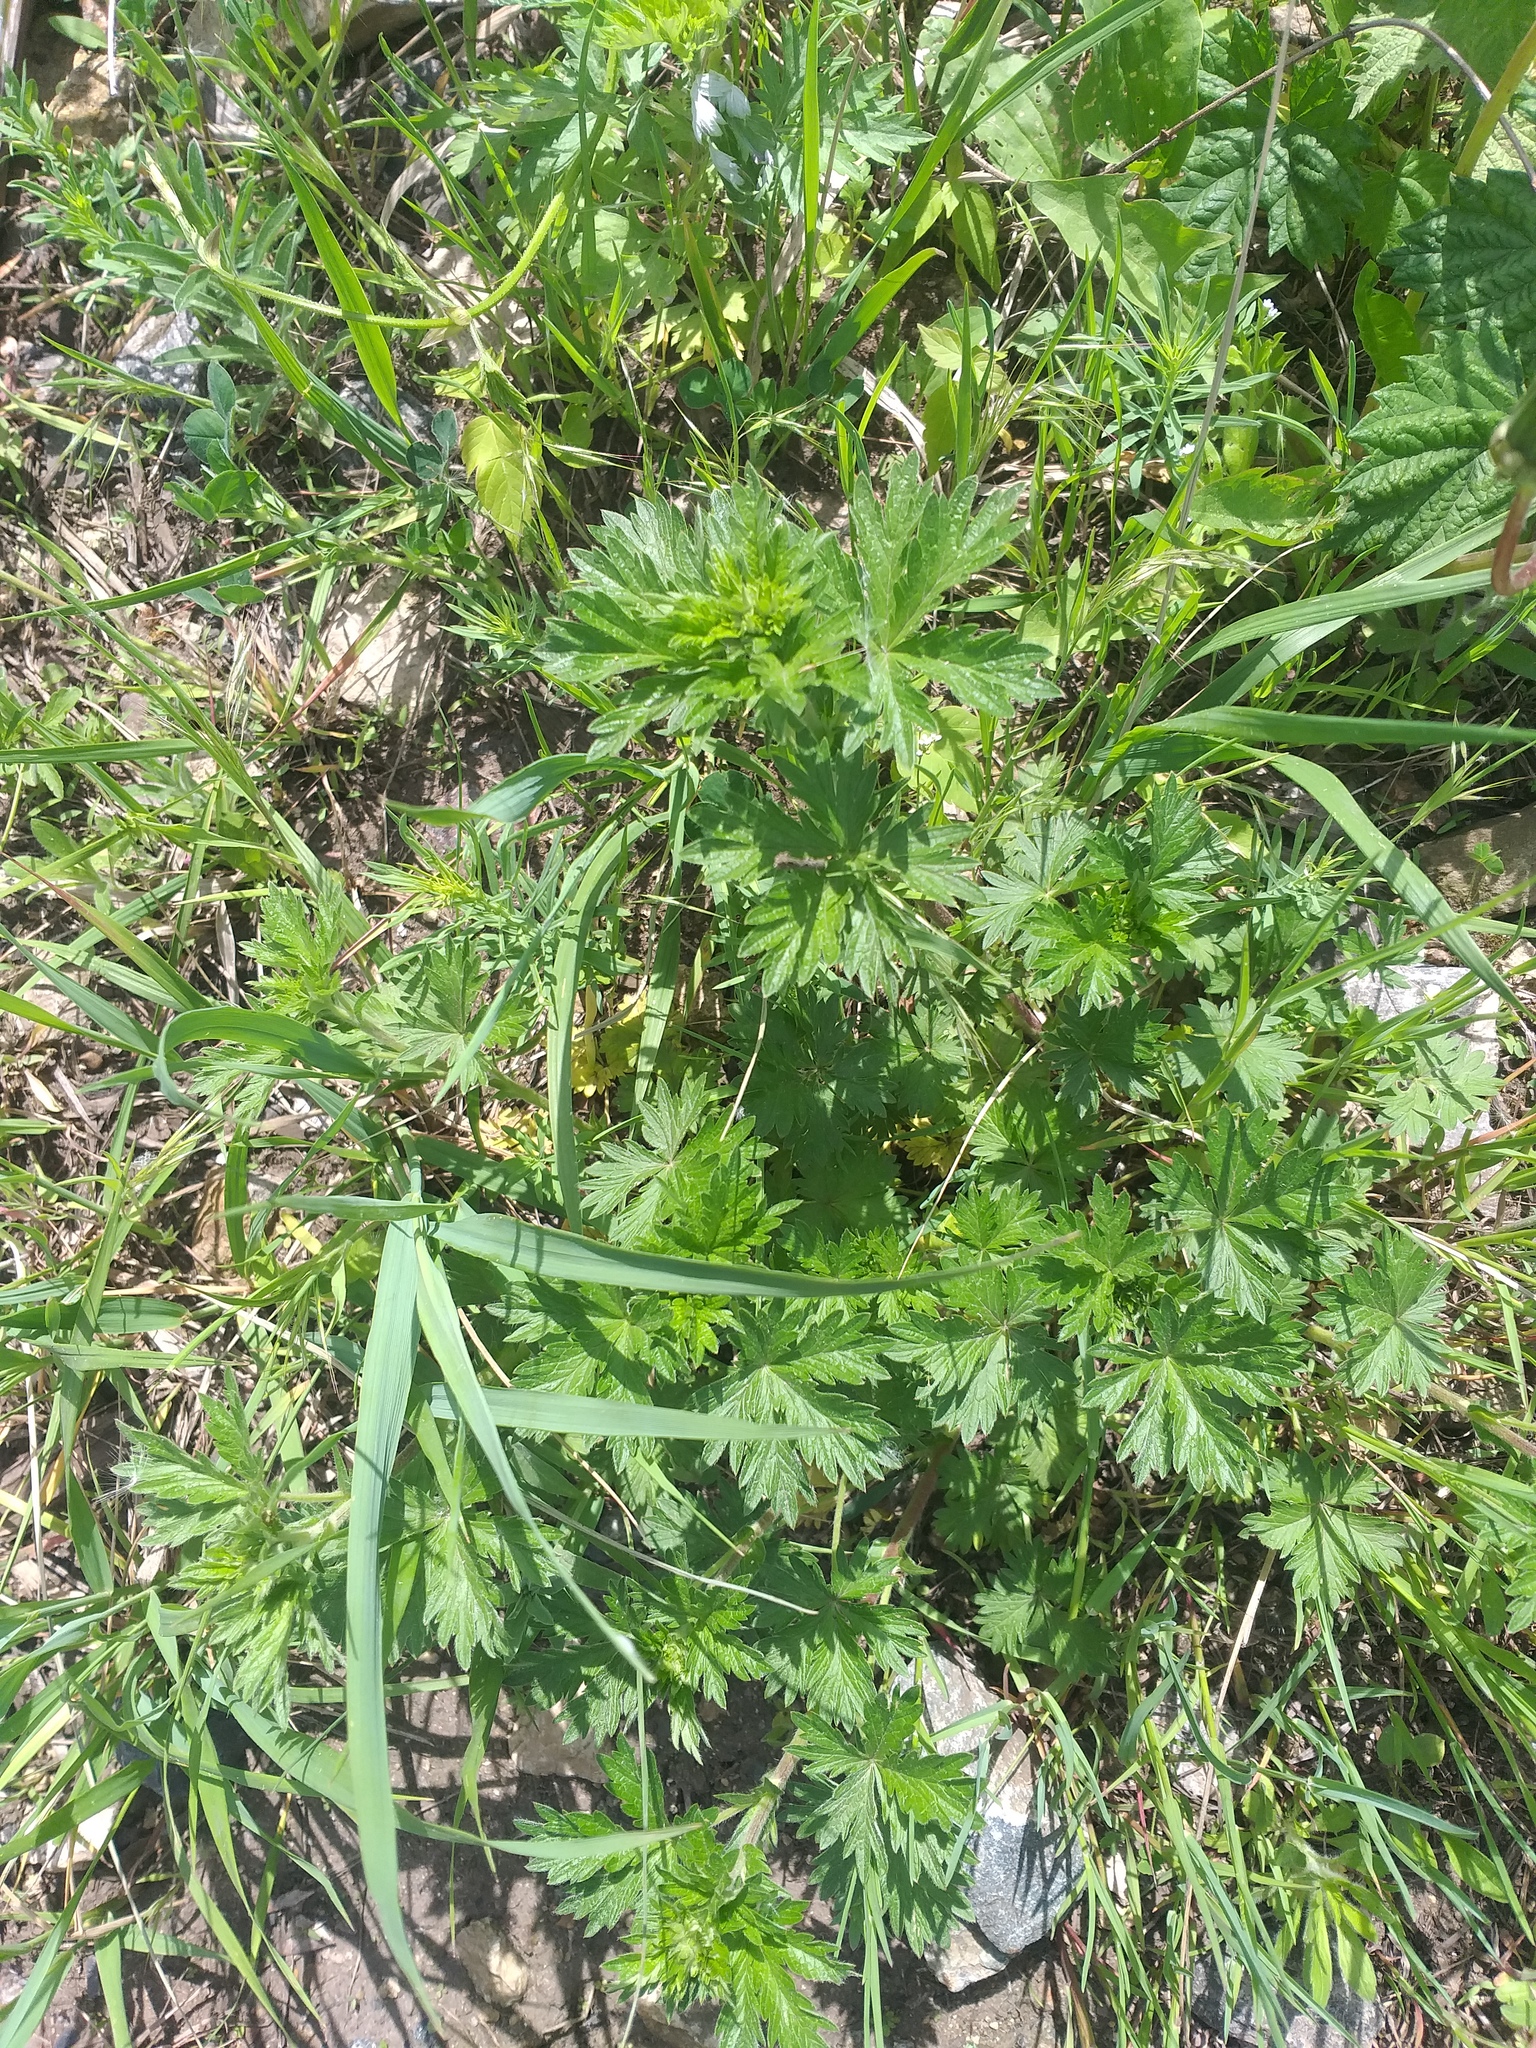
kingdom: Plantae
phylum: Tracheophyta
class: Magnoliopsida
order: Rosales
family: Rosaceae
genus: Potentilla
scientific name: Potentilla intermedia
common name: Downy cinquefoil
